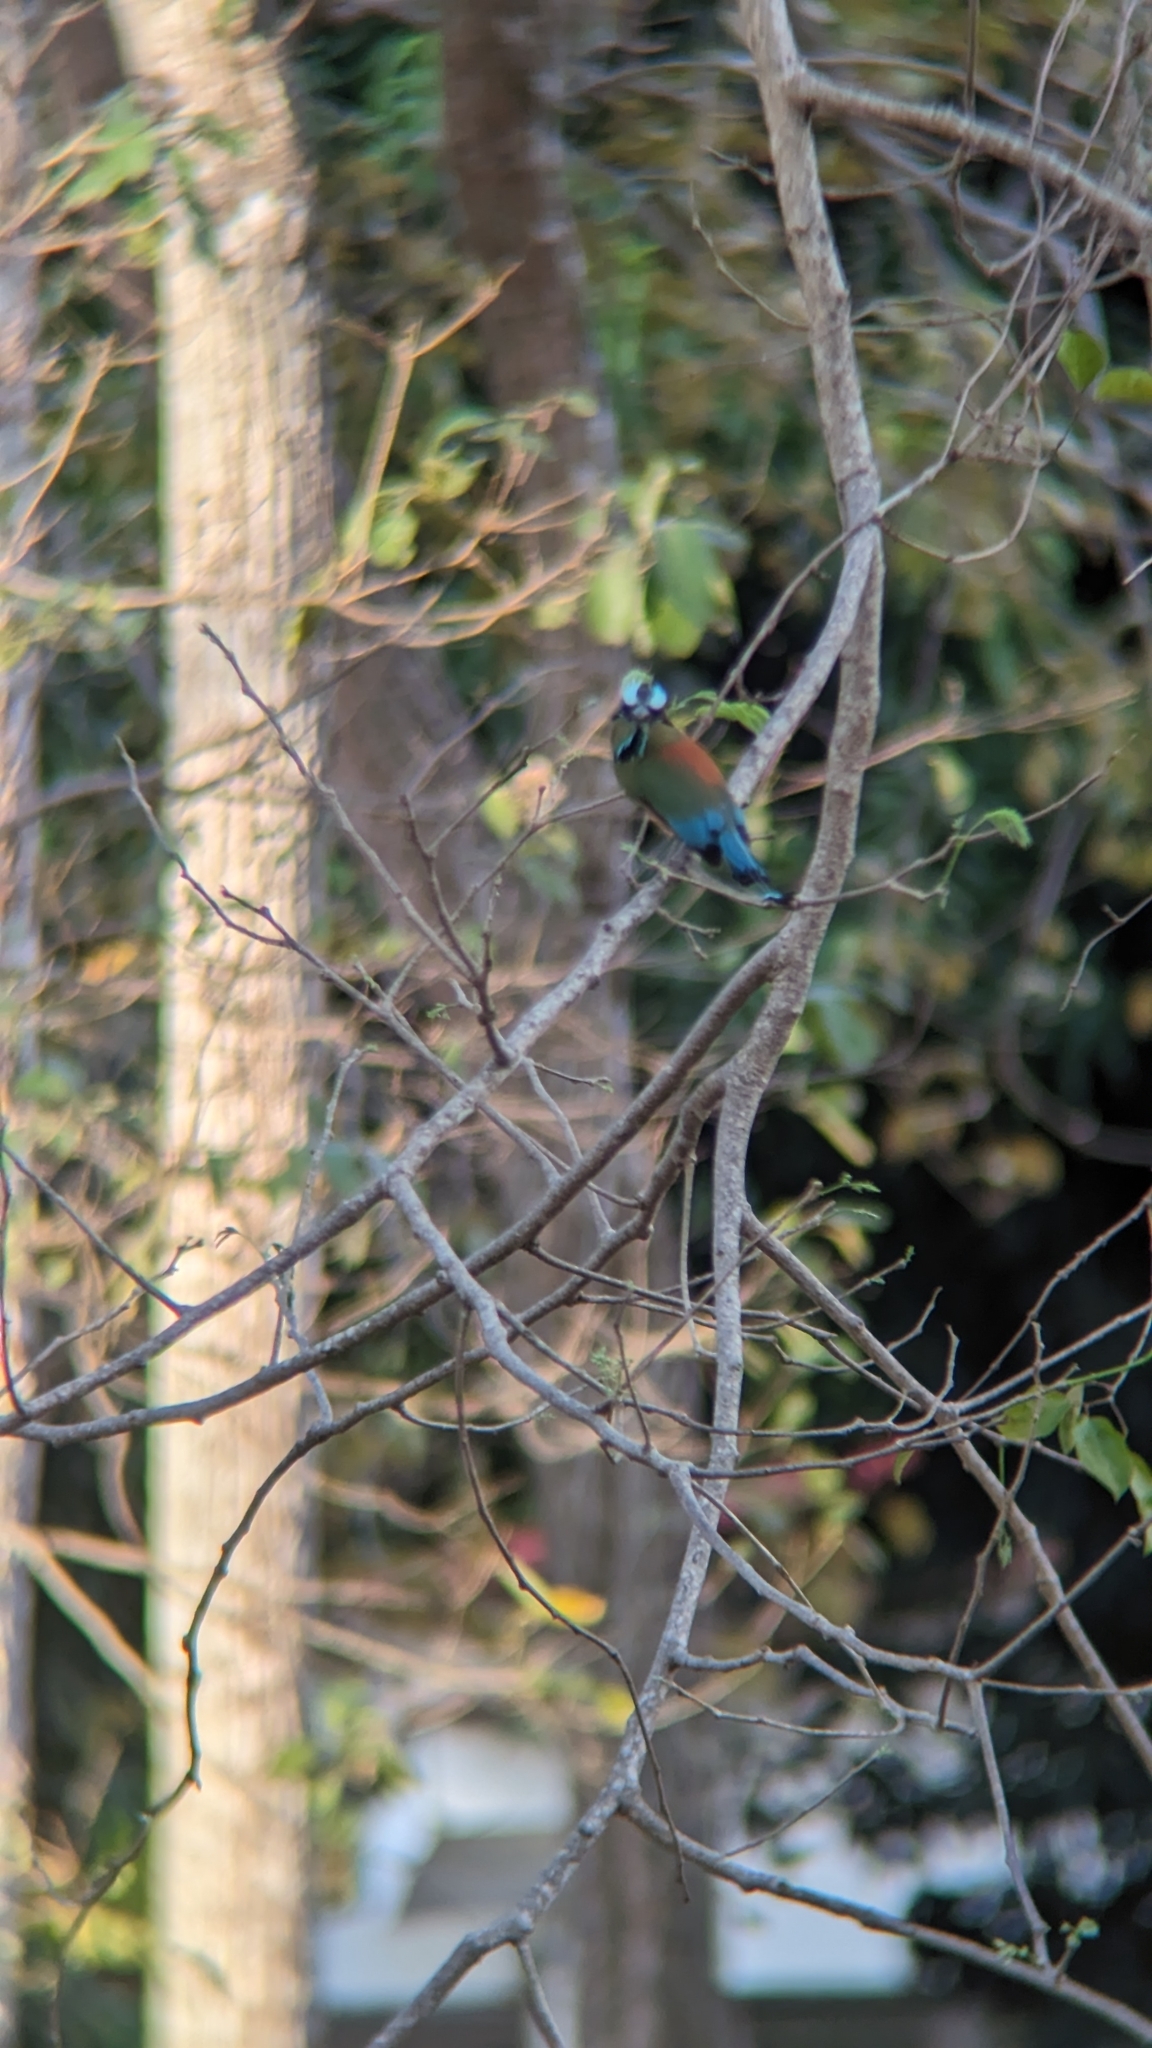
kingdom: Animalia
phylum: Chordata
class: Aves
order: Coraciiformes
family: Momotidae
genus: Eumomota
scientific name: Eumomota superciliosa
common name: Turquoise-browed motmot
